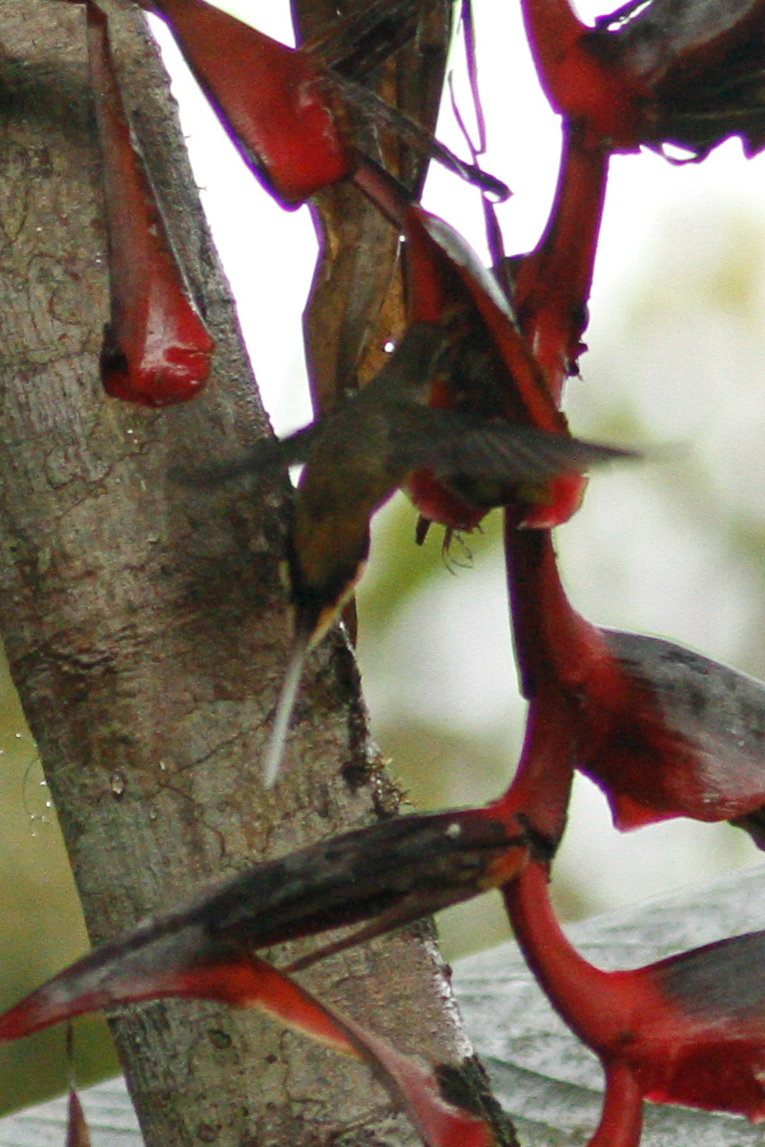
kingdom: Animalia
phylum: Chordata
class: Aves
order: Apodiformes
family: Trochilidae
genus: Phaethornis
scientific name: Phaethornis syrmatophorus
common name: Tawny-bellied hermit
